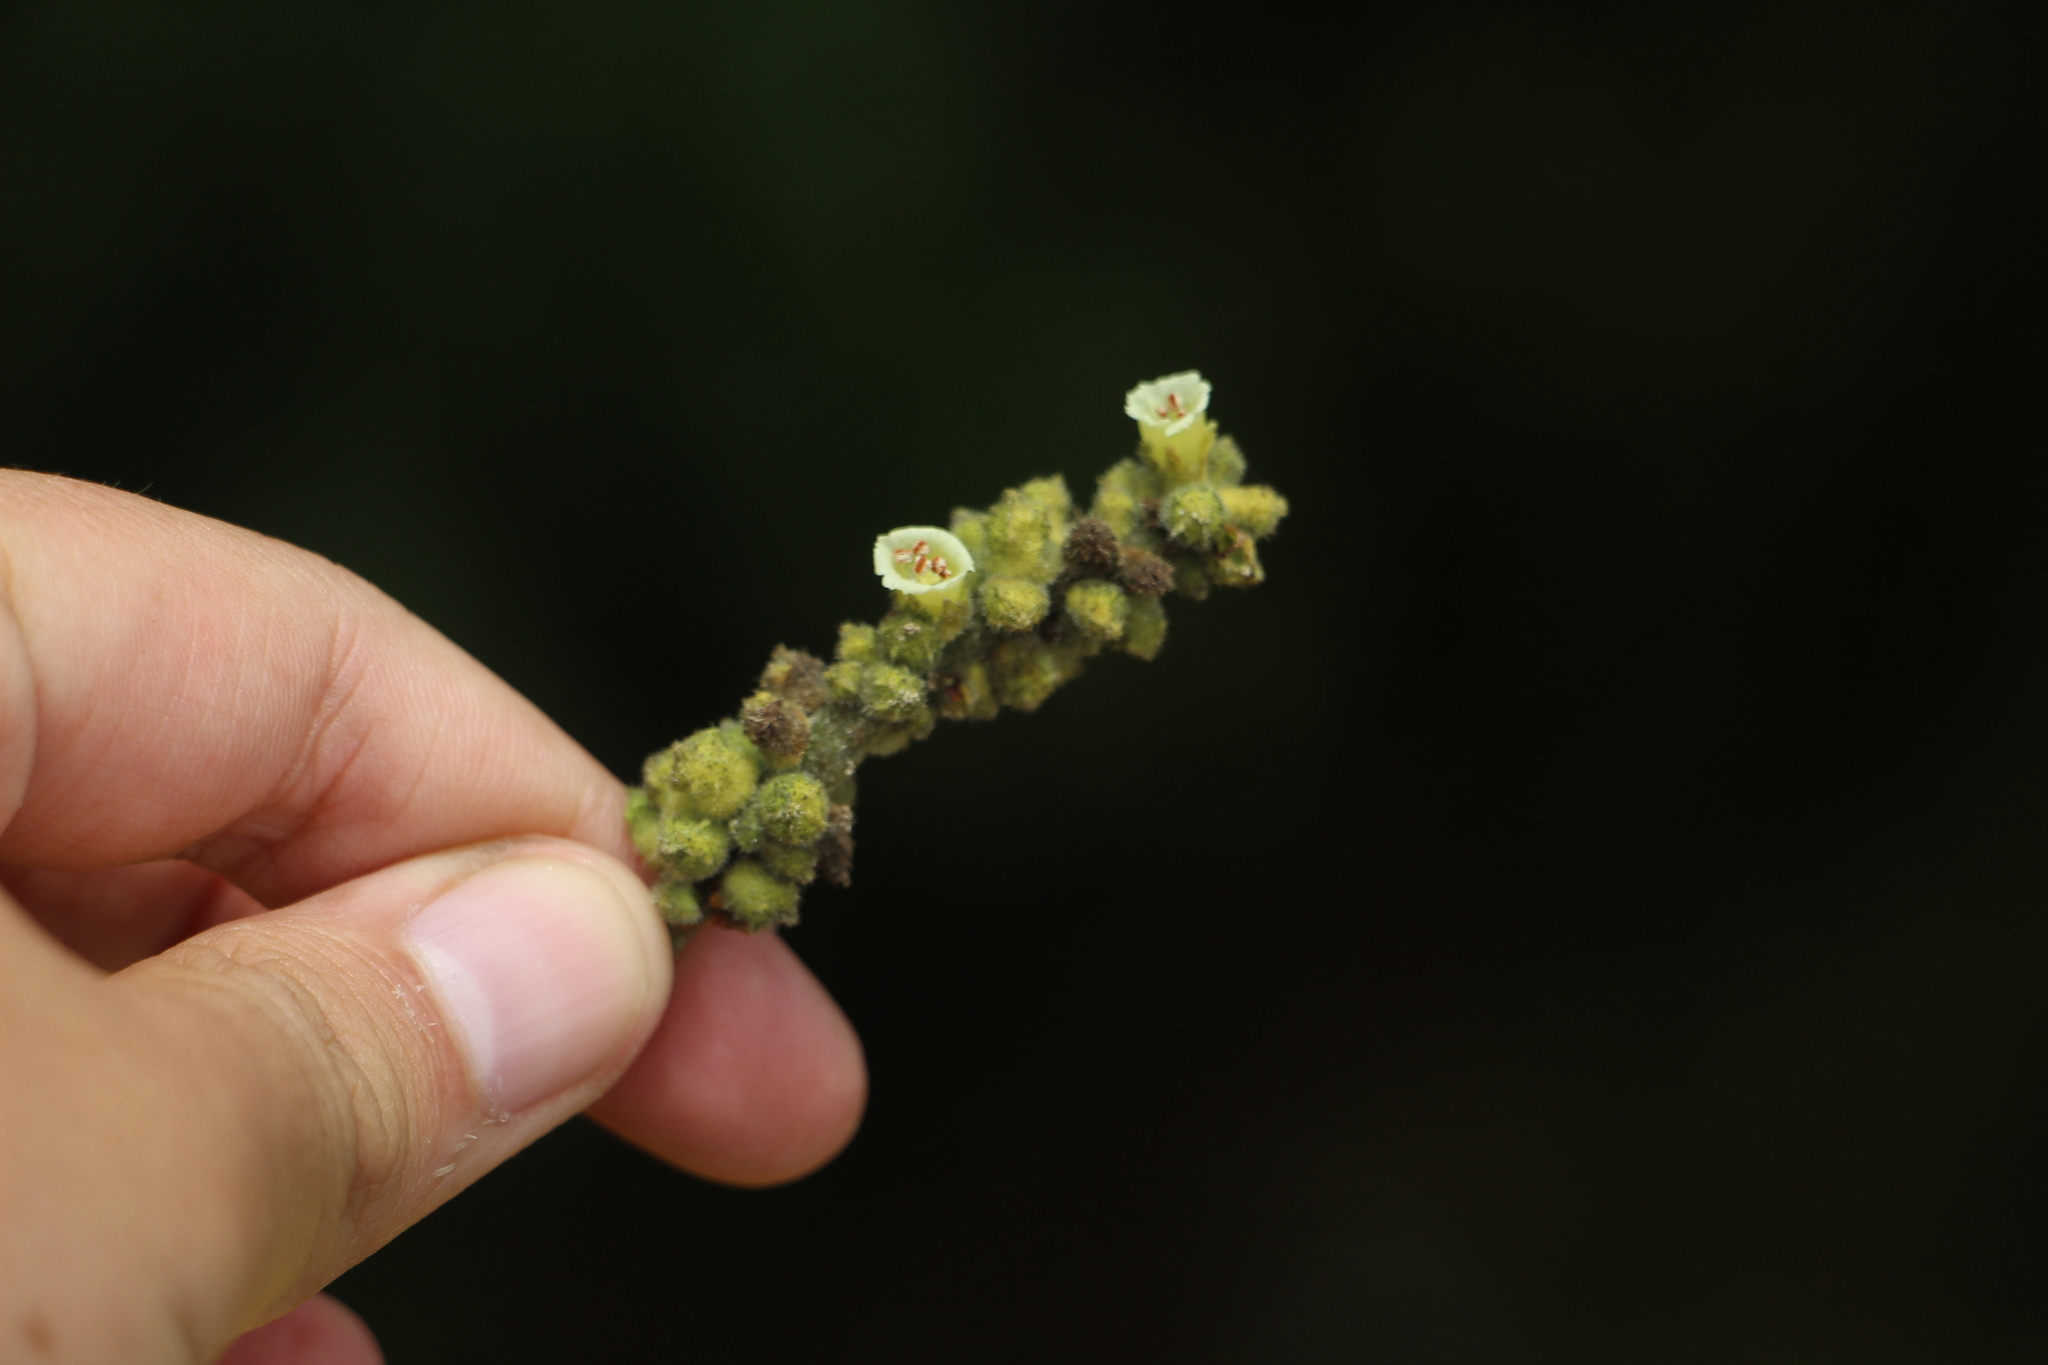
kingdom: Plantae
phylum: Tracheophyta
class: Magnoliopsida
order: Boraginales
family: Cordiaceae
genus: Varronia
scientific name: Varronia cylindrostachya
